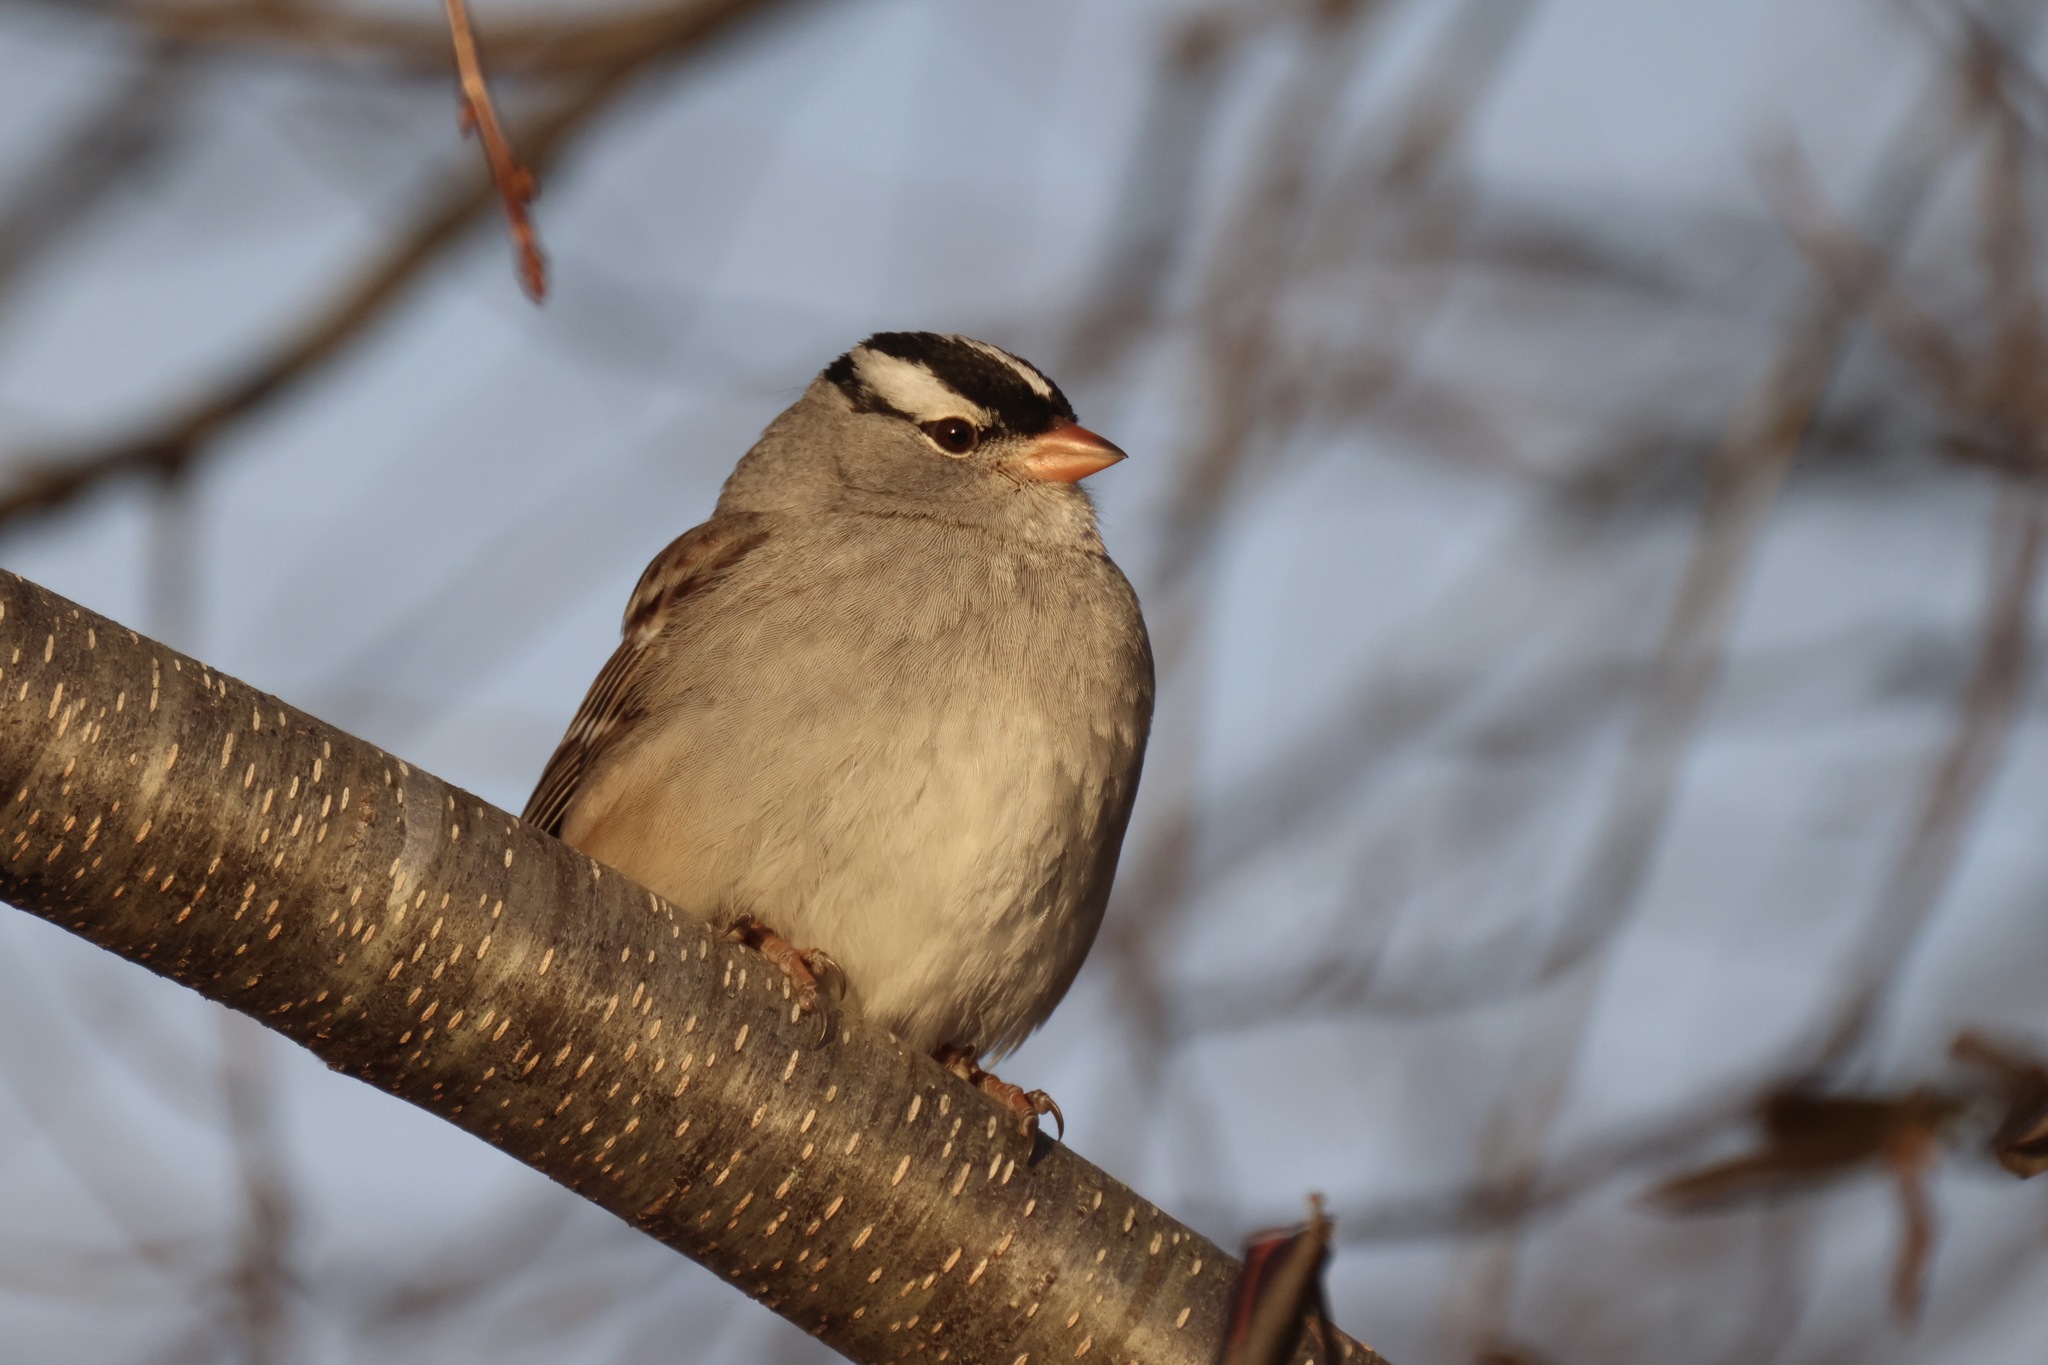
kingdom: Animalia
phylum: Chordata
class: Aves
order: Passeriformes
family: Passerellidae
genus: Zonotrichia
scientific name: Zonotrichia leucophrys
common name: White-crowned sparrow
